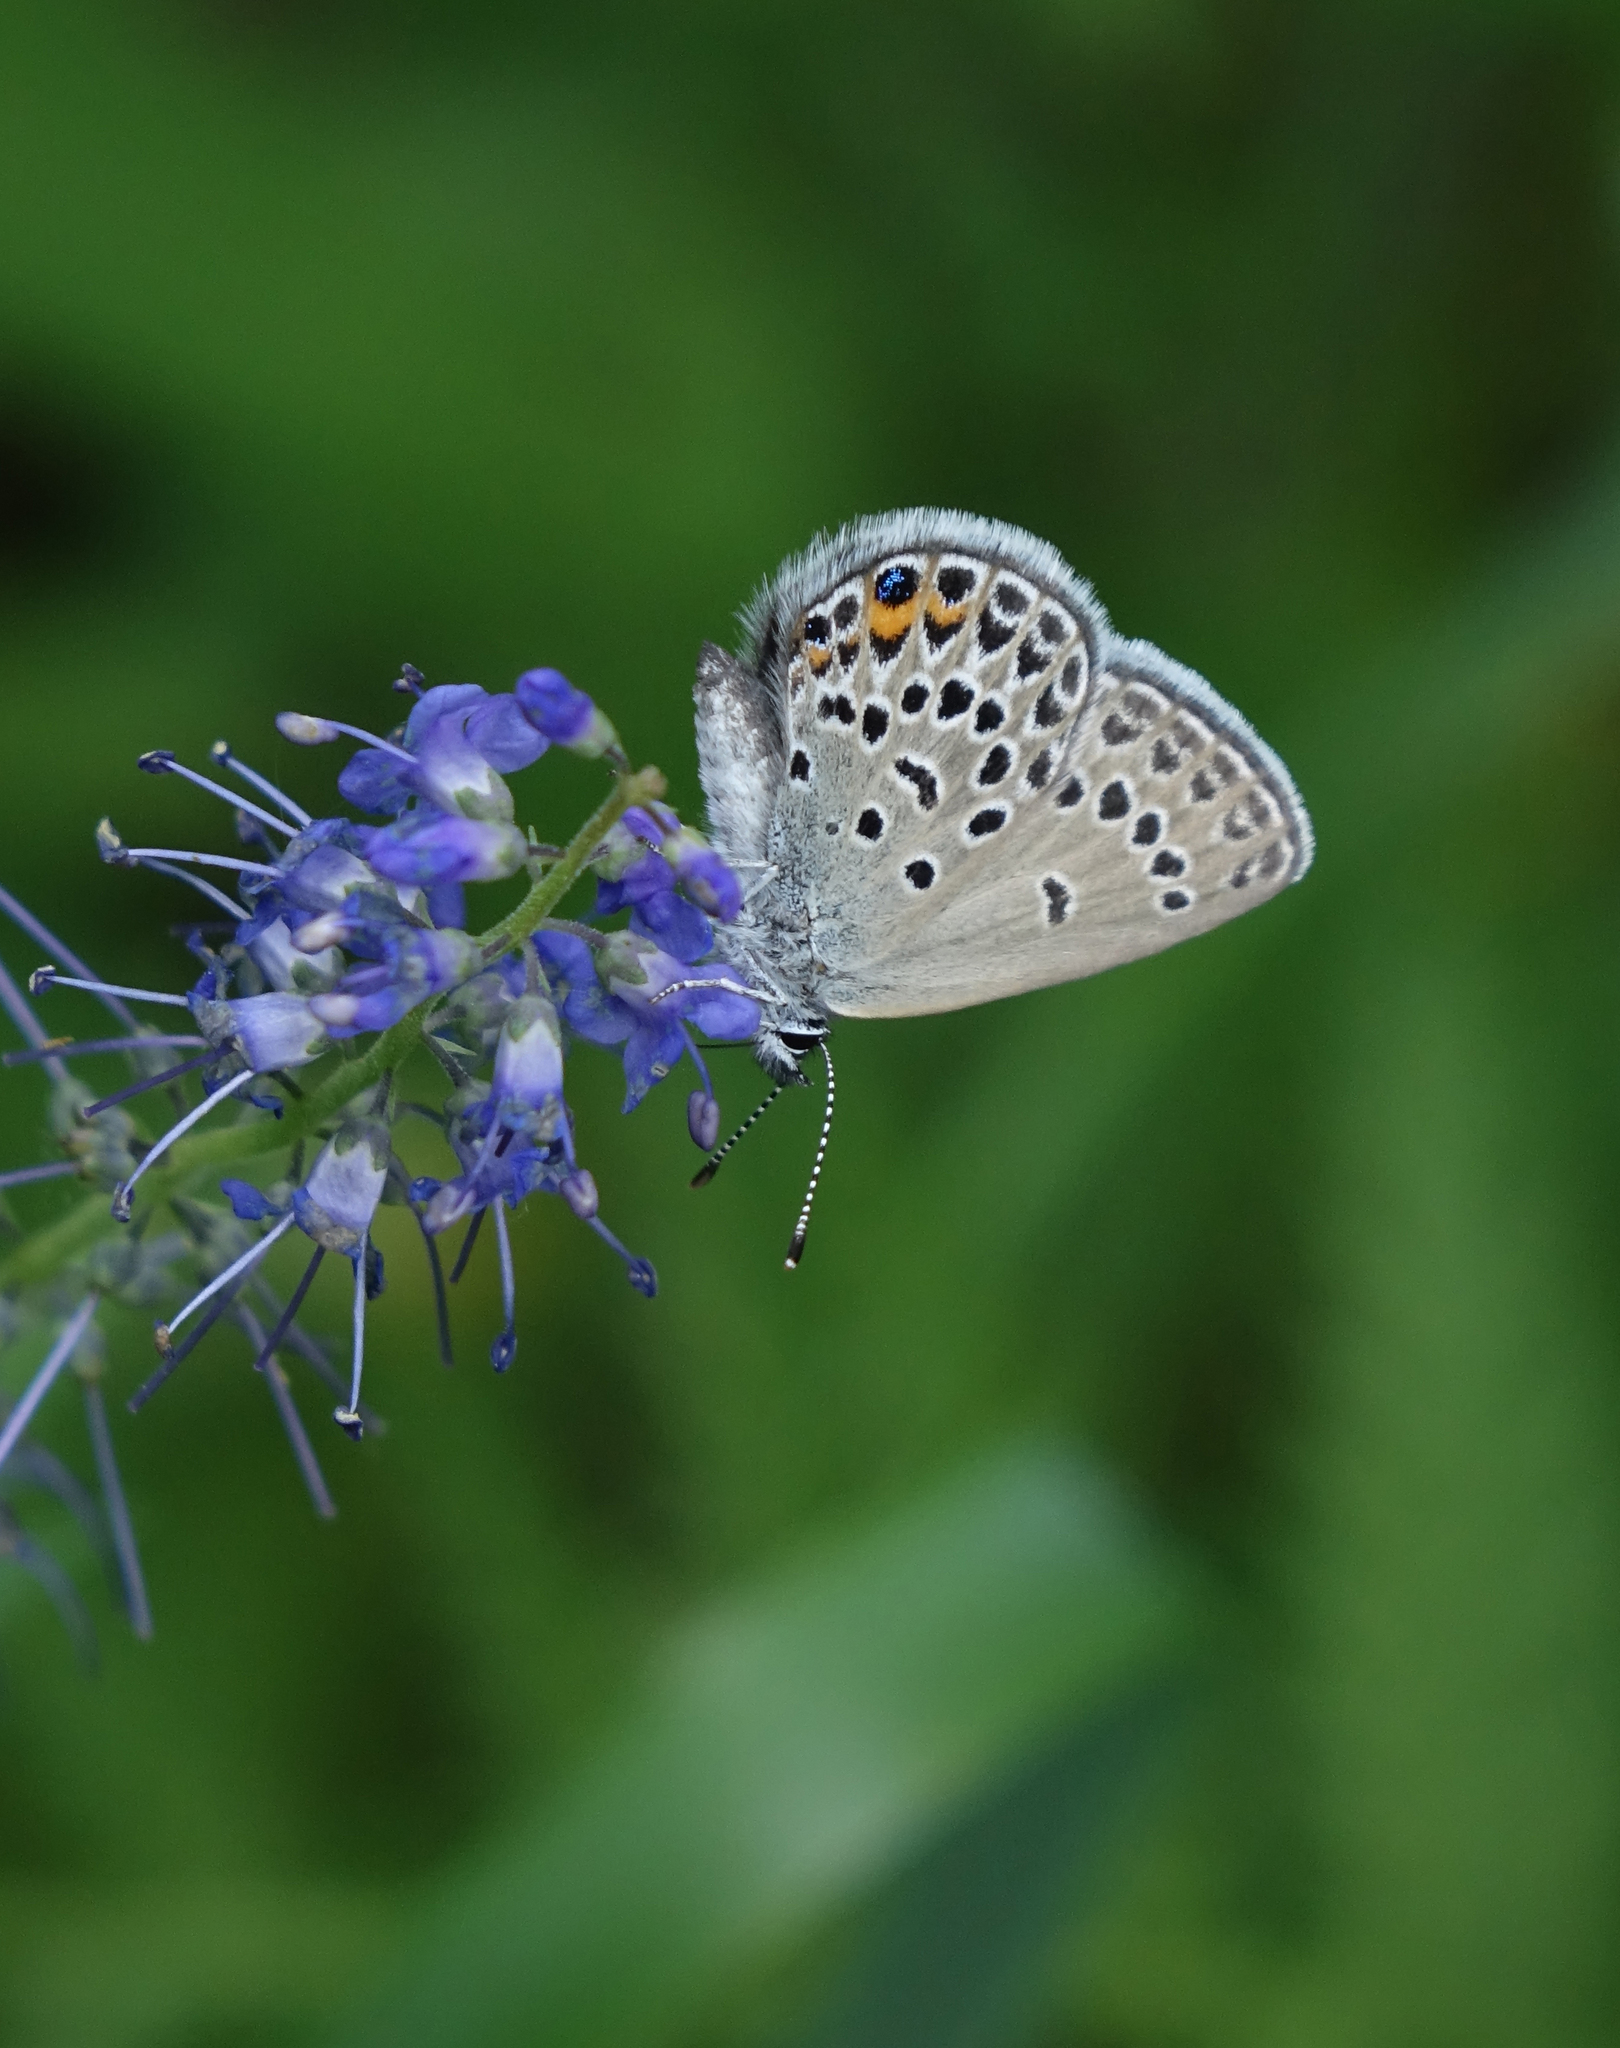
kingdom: Animalia
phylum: Arthropoda
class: Insecta
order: Lepidoptera
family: Lycaenidae
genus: Vacciniina
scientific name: Vacciniina optilete
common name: Cranberry blue
